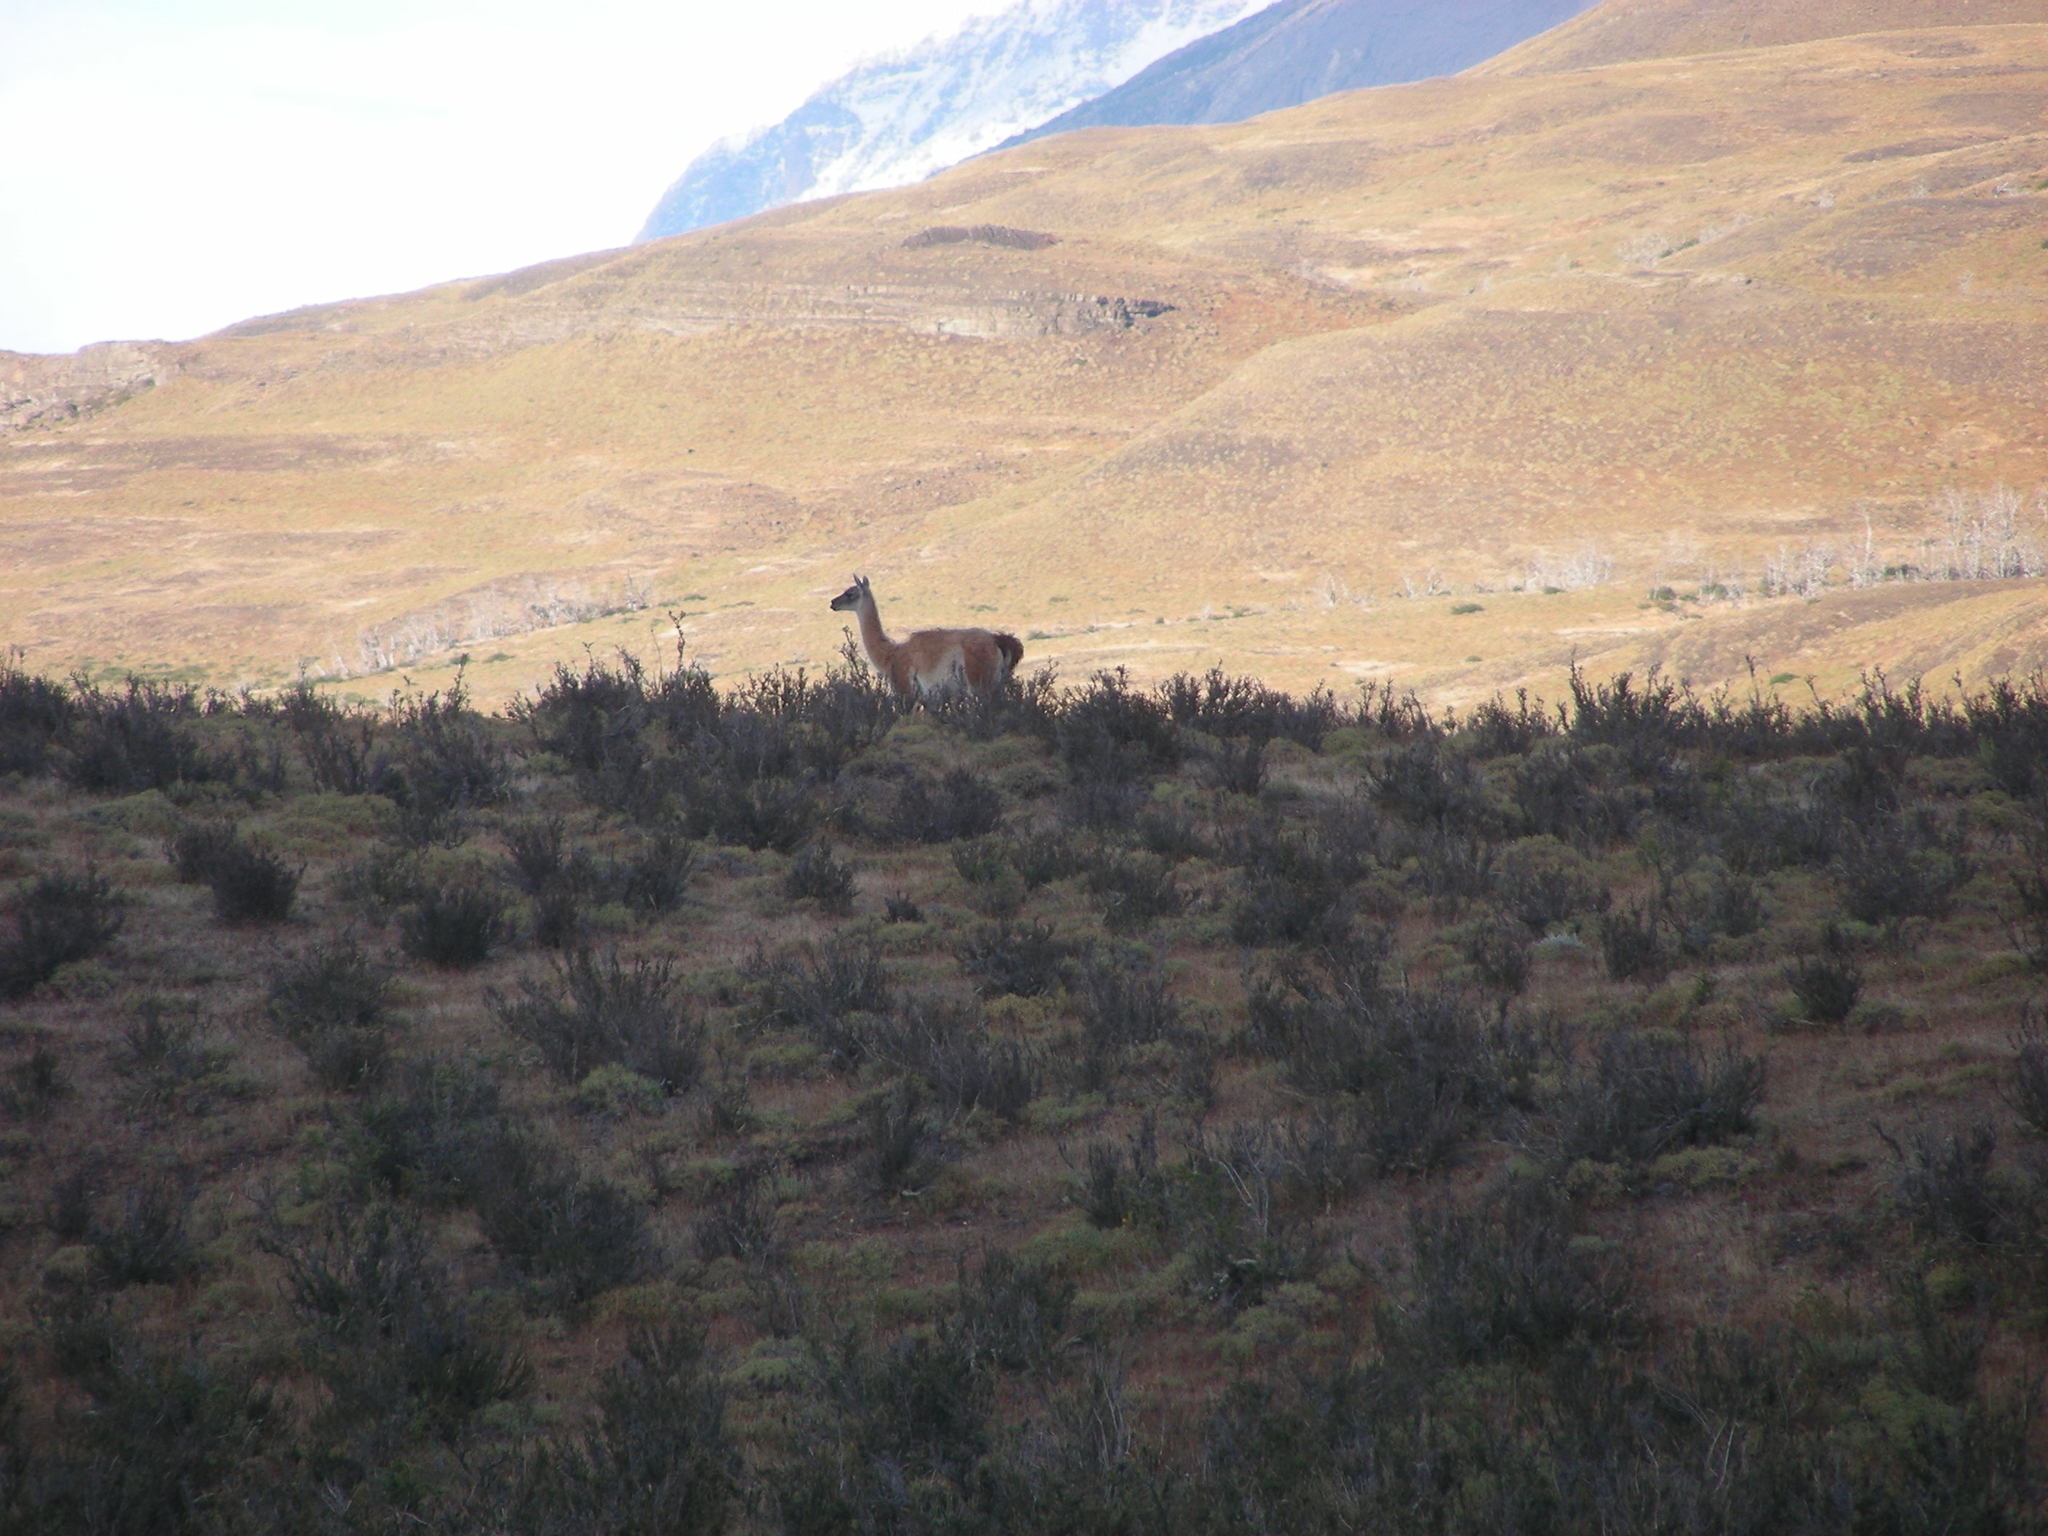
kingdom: Animalia
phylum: Chordata
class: Mammalia
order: Artiodactyla
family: Camelidae
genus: Lama
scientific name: Lama glama
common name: Llama
